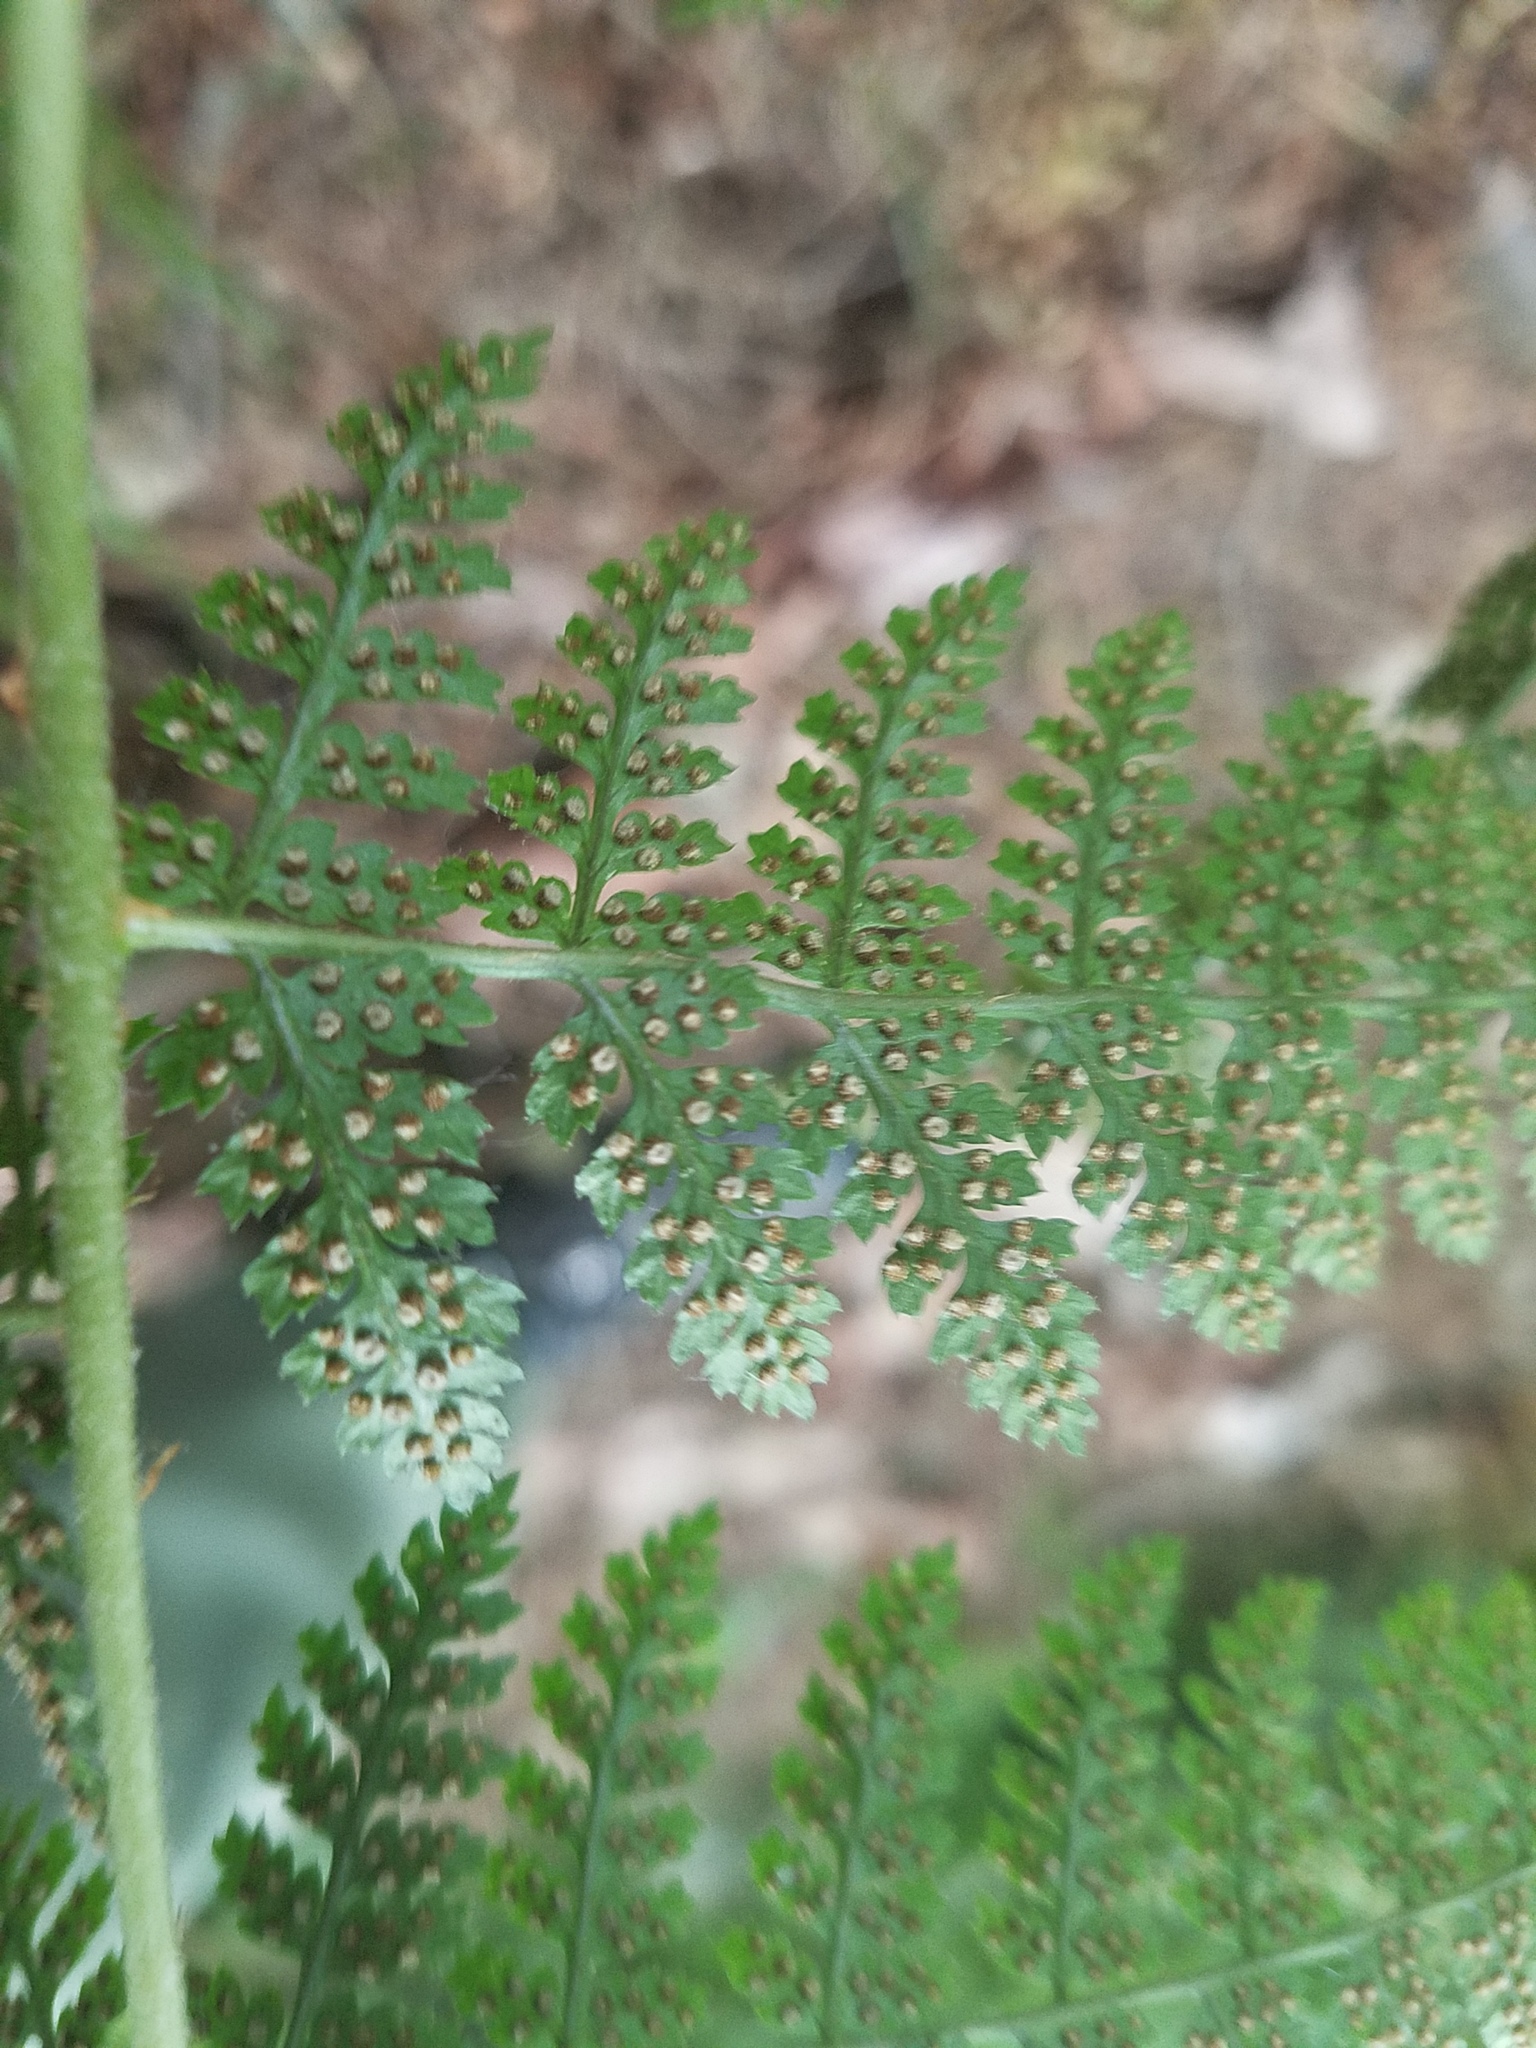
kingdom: Plantae
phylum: Tracheophyta
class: Polypodiopsida
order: Polypodiales
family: Dryopteridaceae
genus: Dryopteris
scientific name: Dryopteris intermedia
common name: Evergreen wood fern
